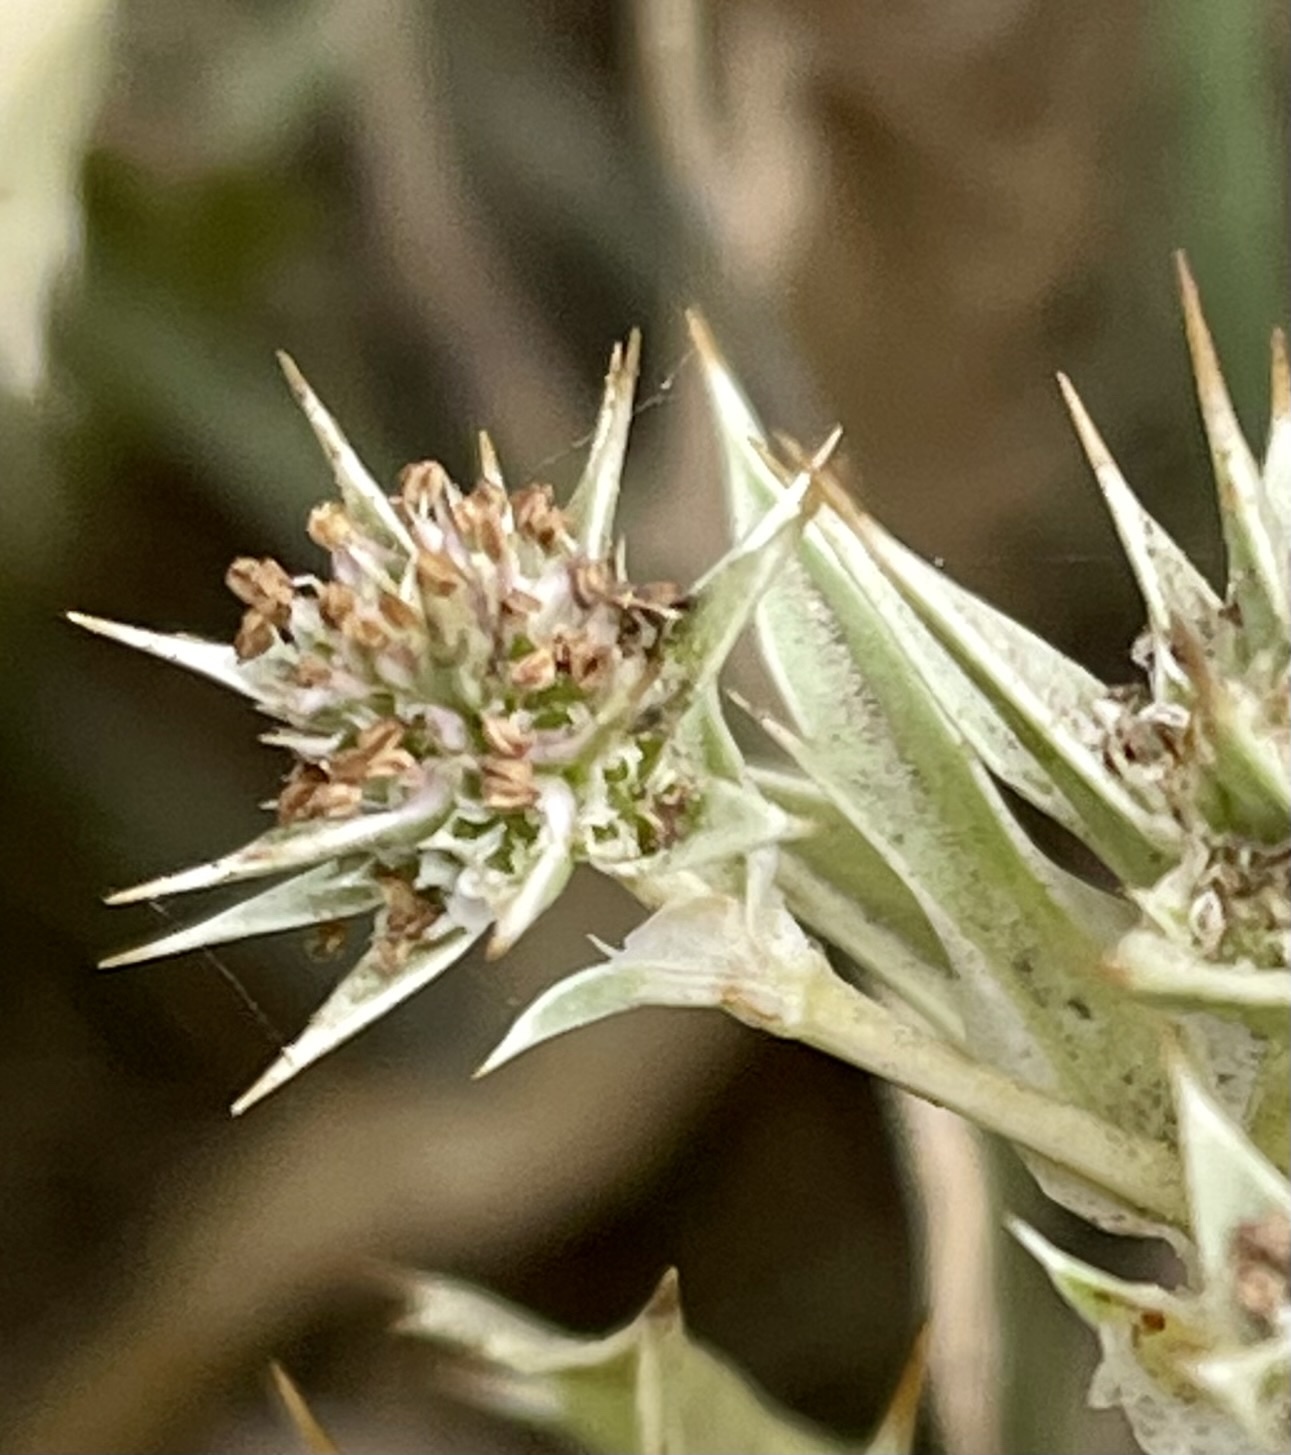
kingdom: Plantae
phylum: Tracheophyta
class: Magnoliopsida
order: Apiales
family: Apiaceae
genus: Eryngium
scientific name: Eryngium armatum
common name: Coyote thistle
